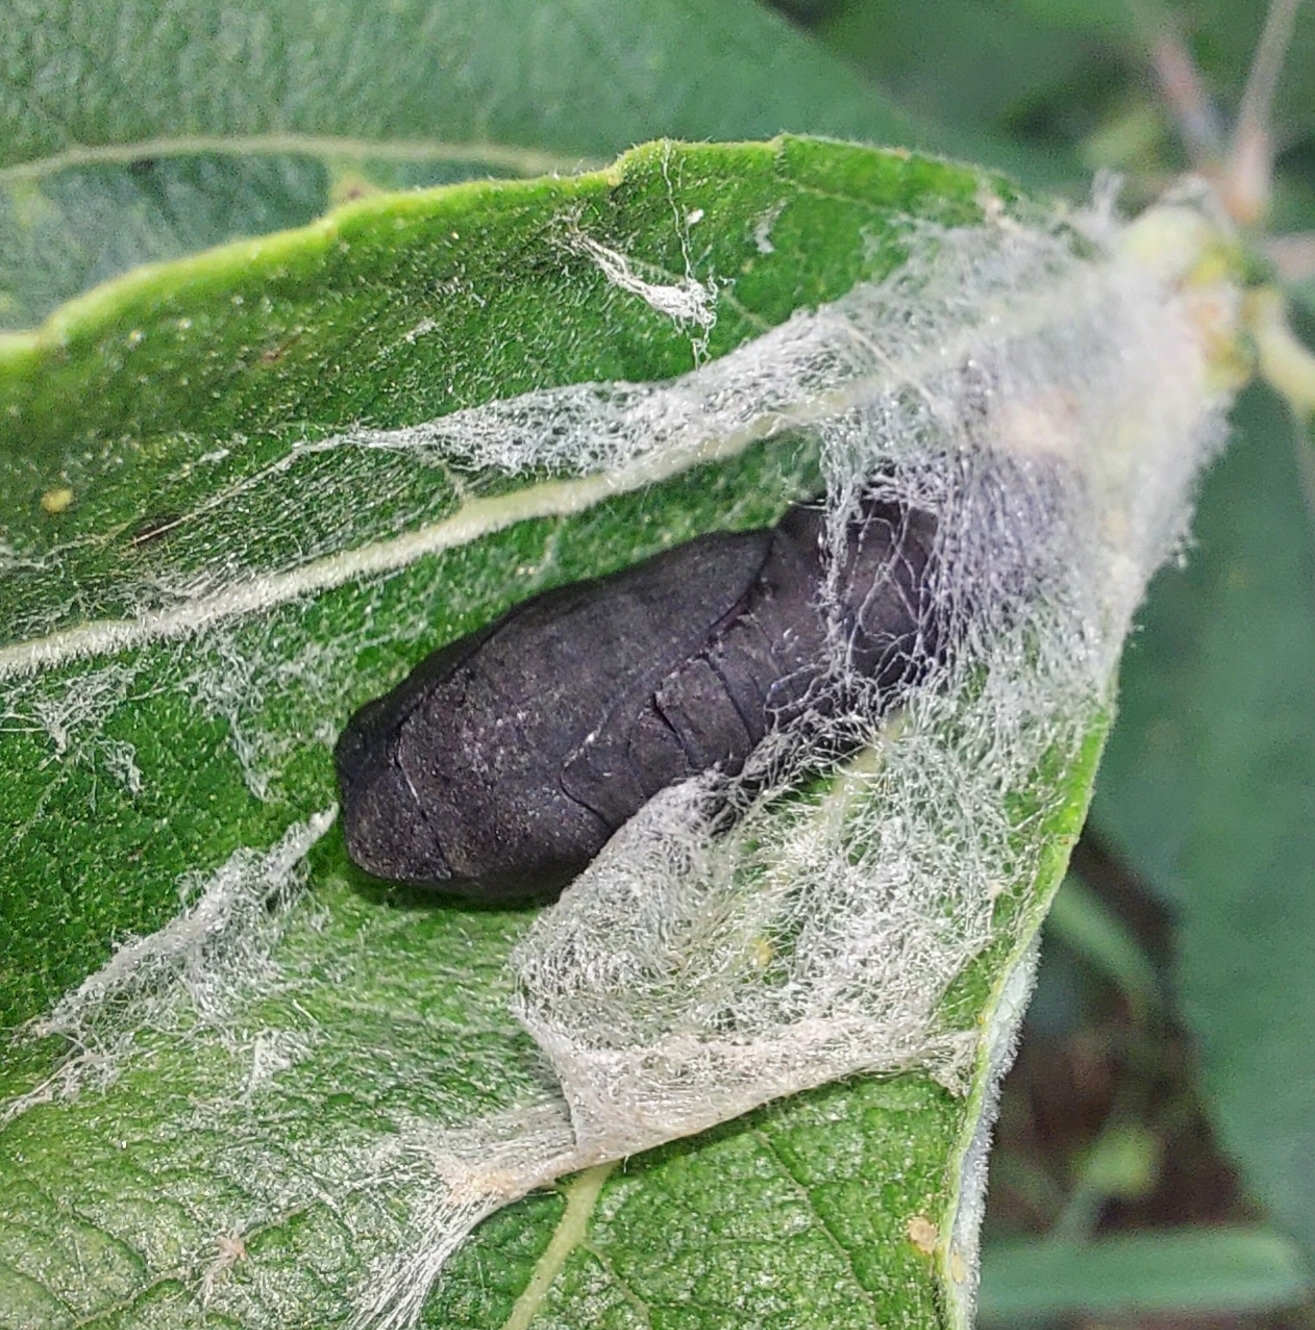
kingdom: Animalia
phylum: Arthropoda
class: Insecta
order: Lepidoptera
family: Erebidae
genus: Scoliopteryx
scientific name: Scoliopteryx libatrix
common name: Herald
